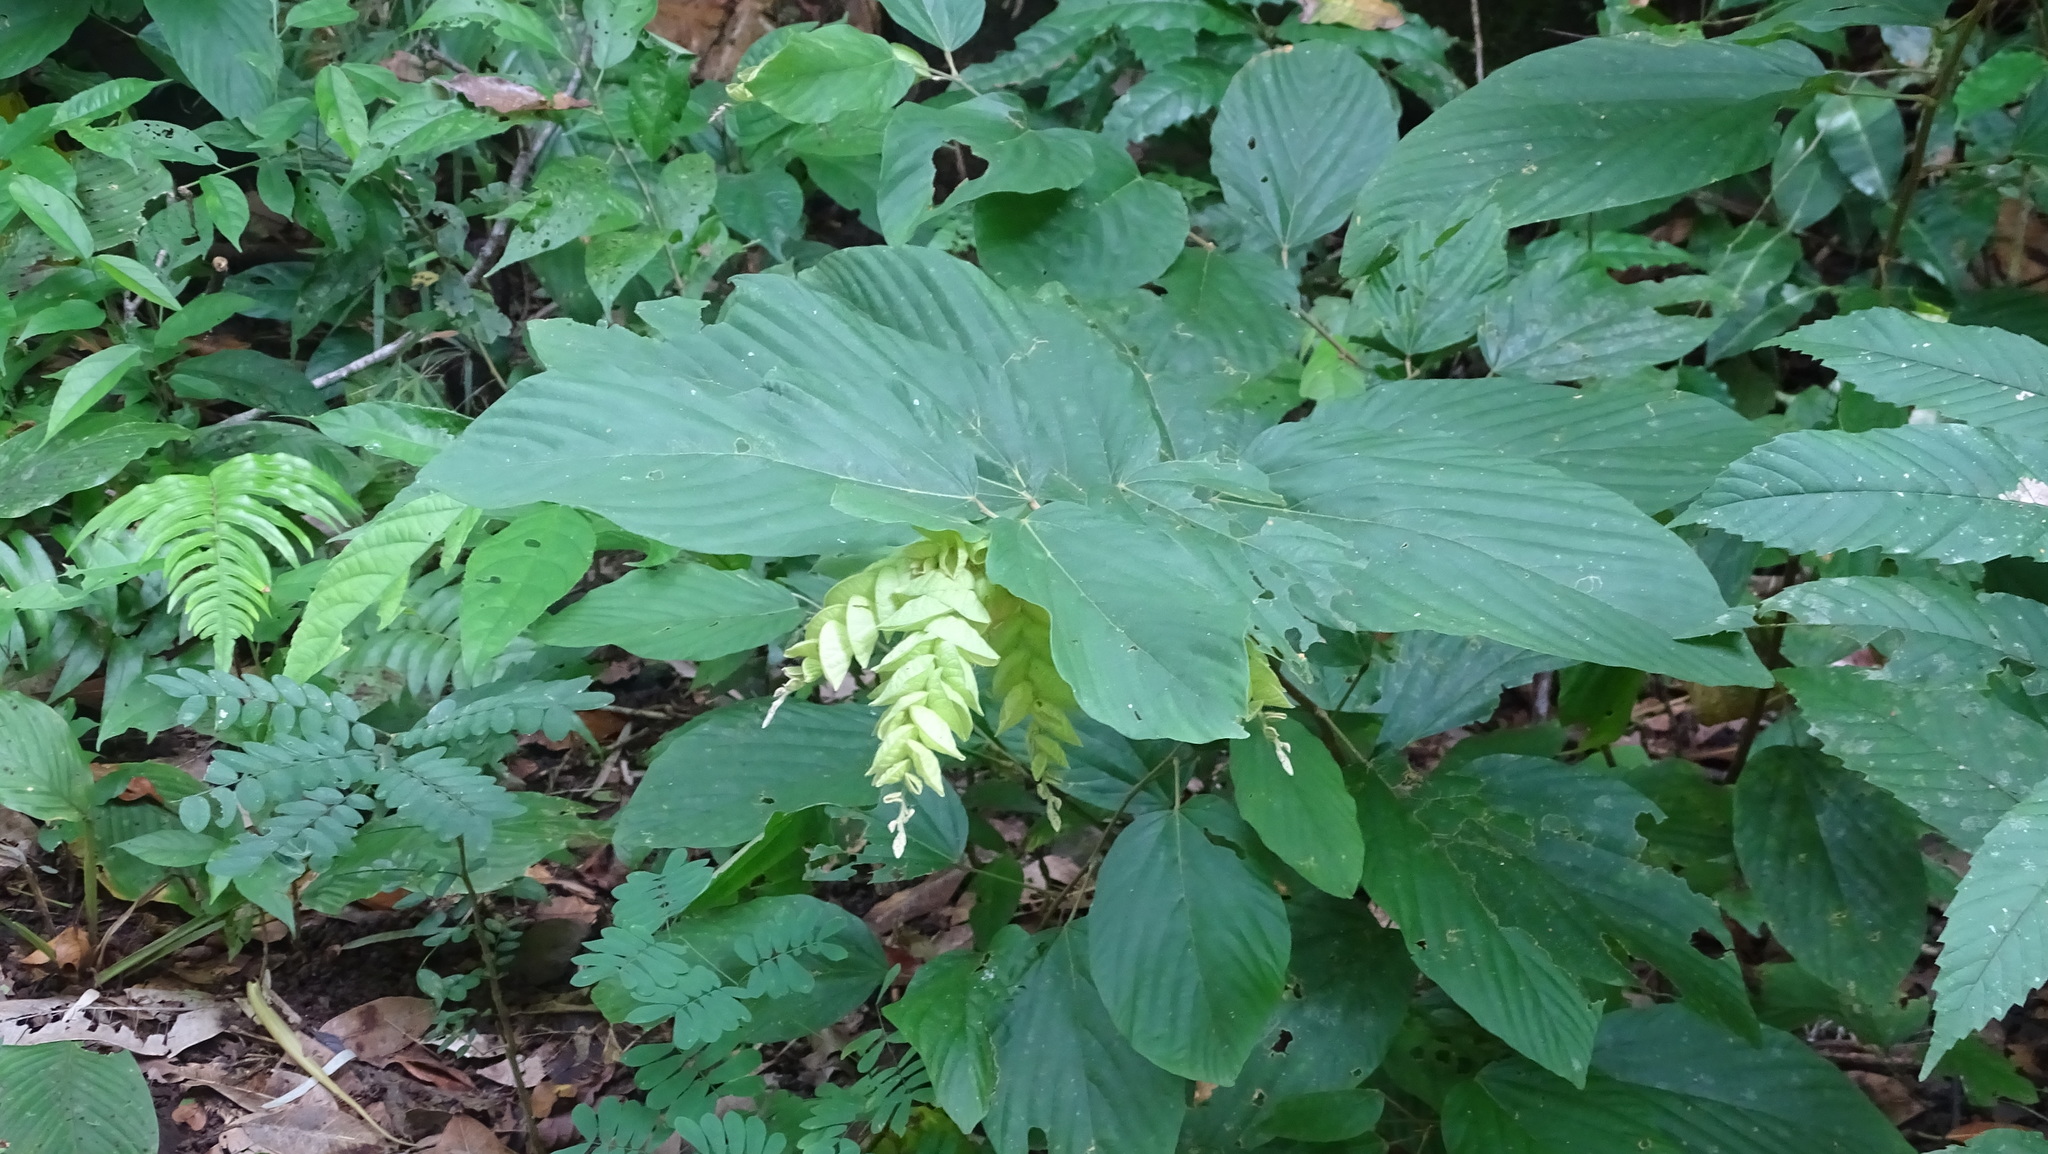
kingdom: Plantae
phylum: Tracheophyta
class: Magnoliopsida
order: Fabales
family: Fabaceae
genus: Flemingia
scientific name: Flemingia strobilifera
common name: Wild hops
